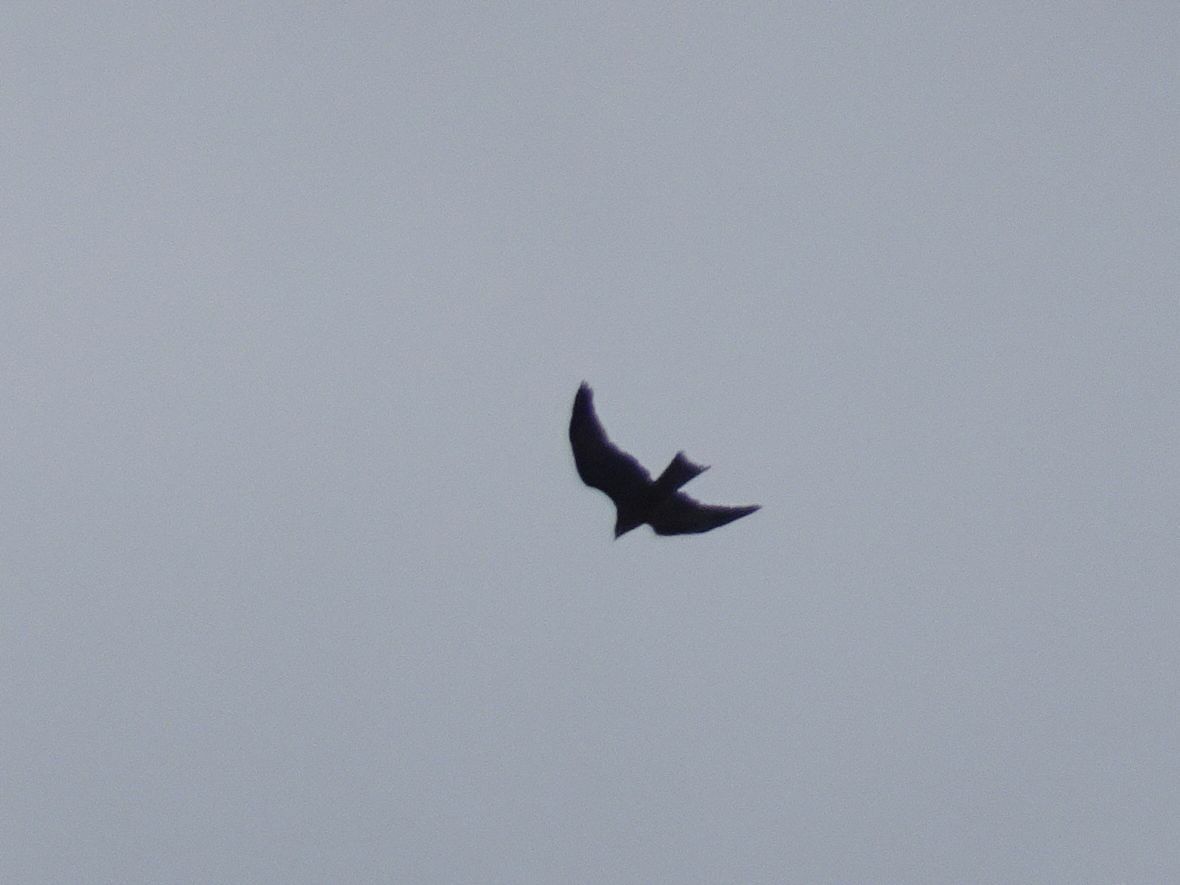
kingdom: Animalia
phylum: Chordata
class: Aves
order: Accipitriformes
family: Accipitridae
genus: Milvus
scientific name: Milvus milvus
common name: Red kite
